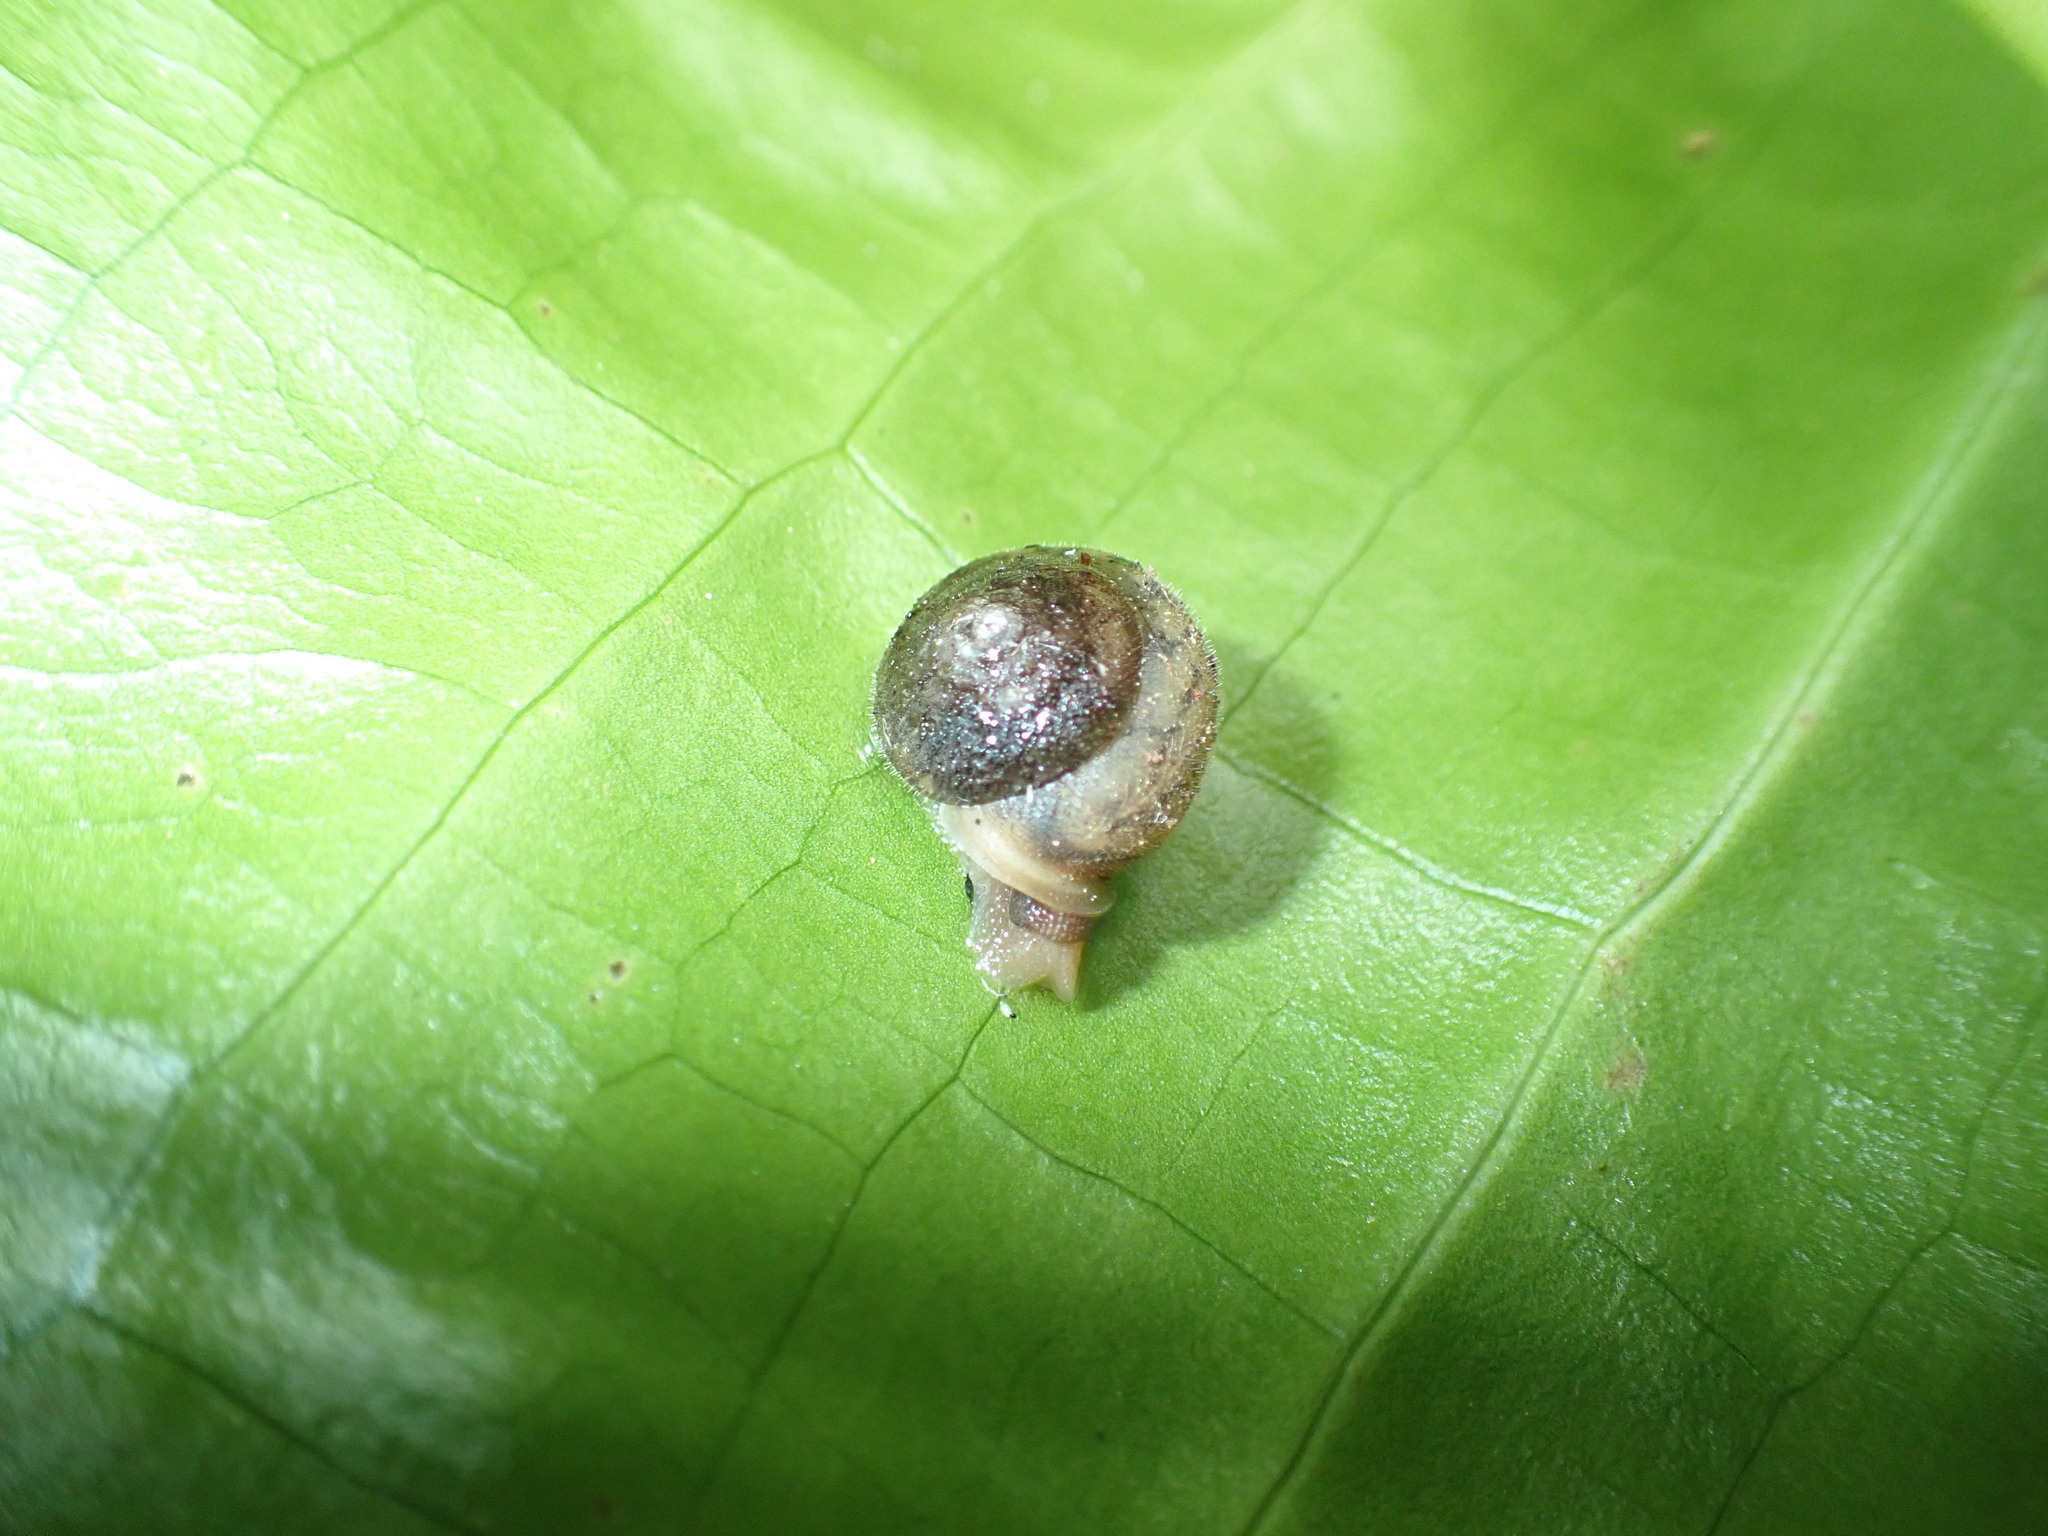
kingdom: Animalia
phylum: Mollusca
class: Gastropoda
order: Stylommatophora
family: Polygyridae
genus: Vespericola
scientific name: Vespericola columbianus
